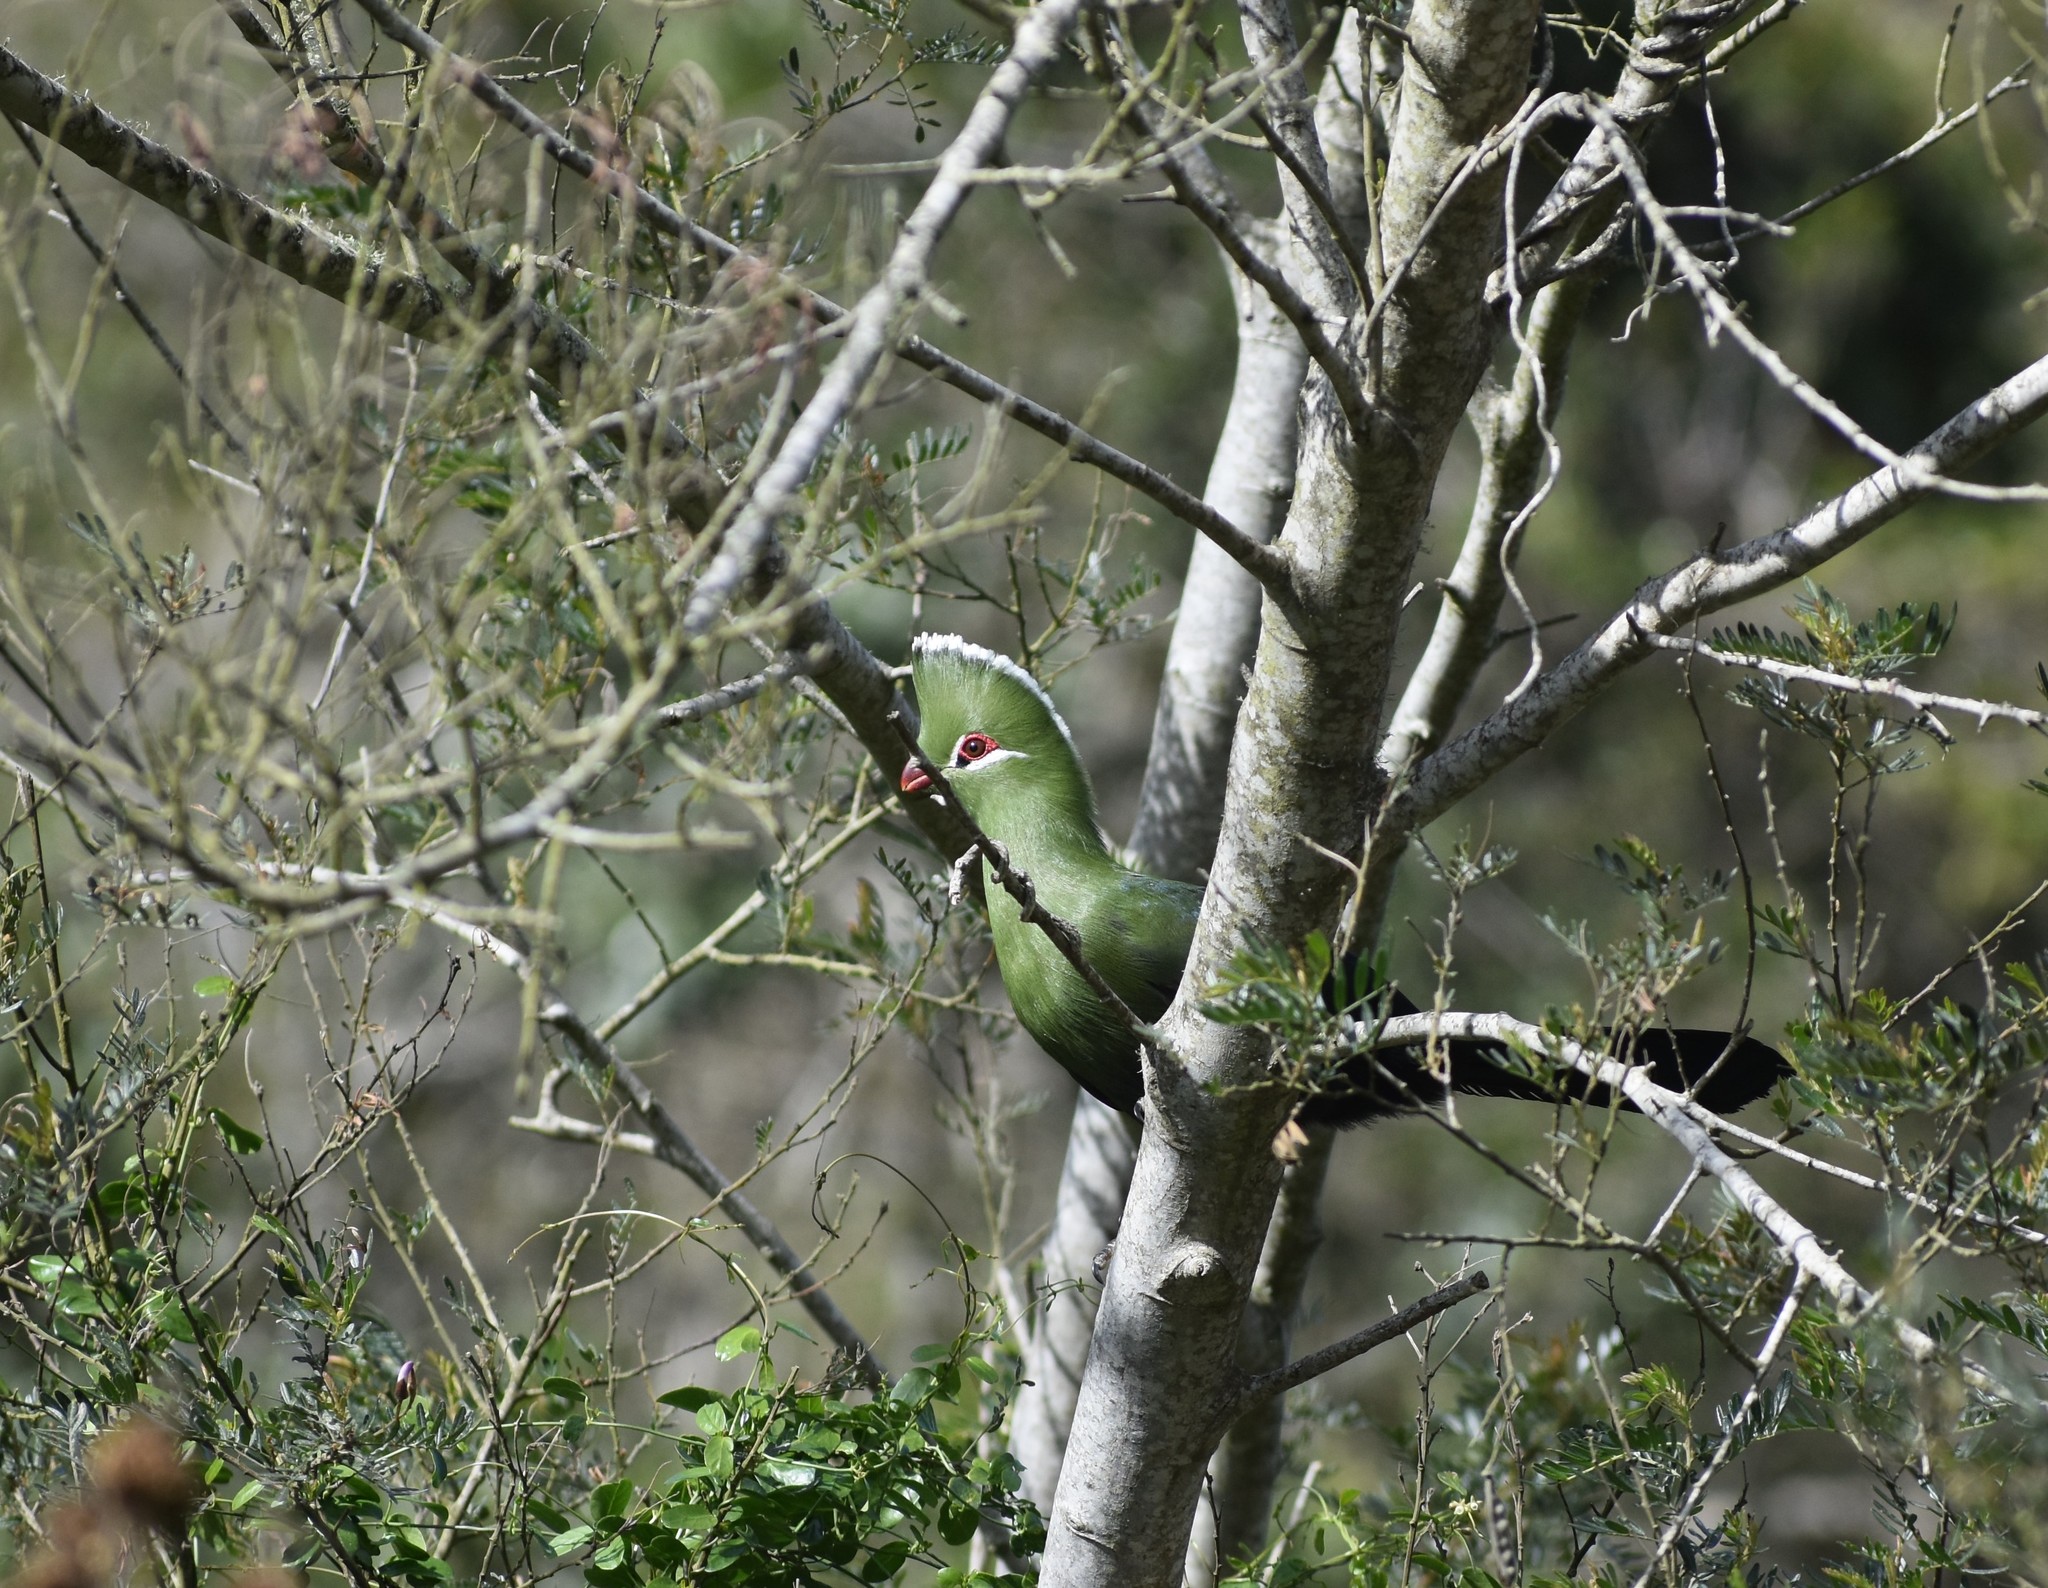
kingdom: Animalia
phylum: Chordata
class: Aves
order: Musophagiformes
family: Musophagidae
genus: Tauraco
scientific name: Tauraco corythaix
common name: Knysna turaco
